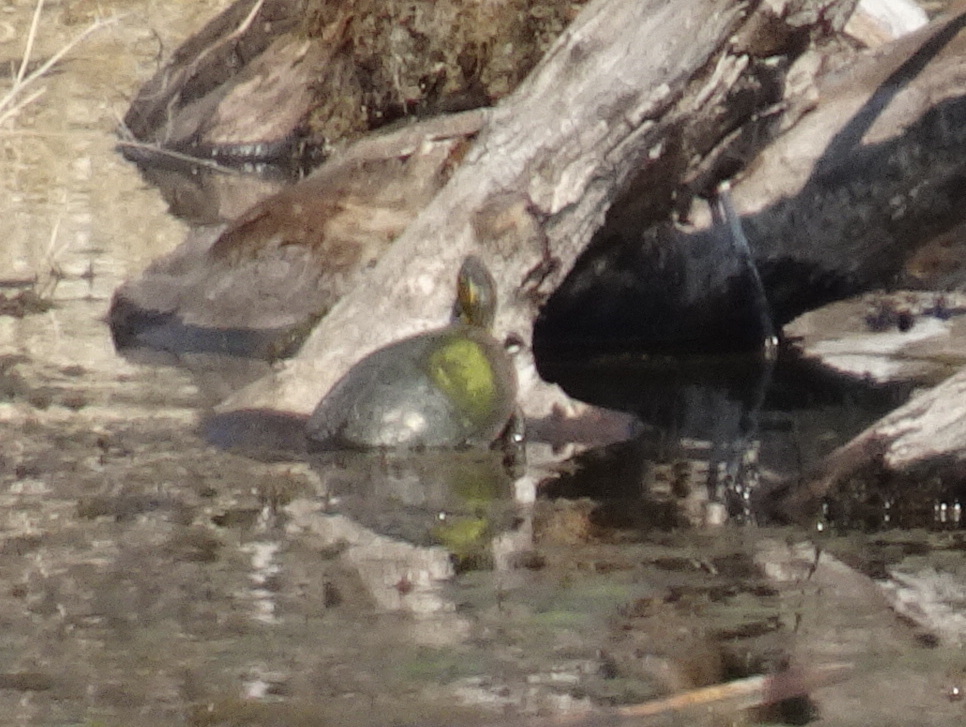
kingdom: Animalia
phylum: Chordata
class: Testudines
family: Emydidae
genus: Chrysemys
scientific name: Chrysemys picta
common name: Painted turtle
